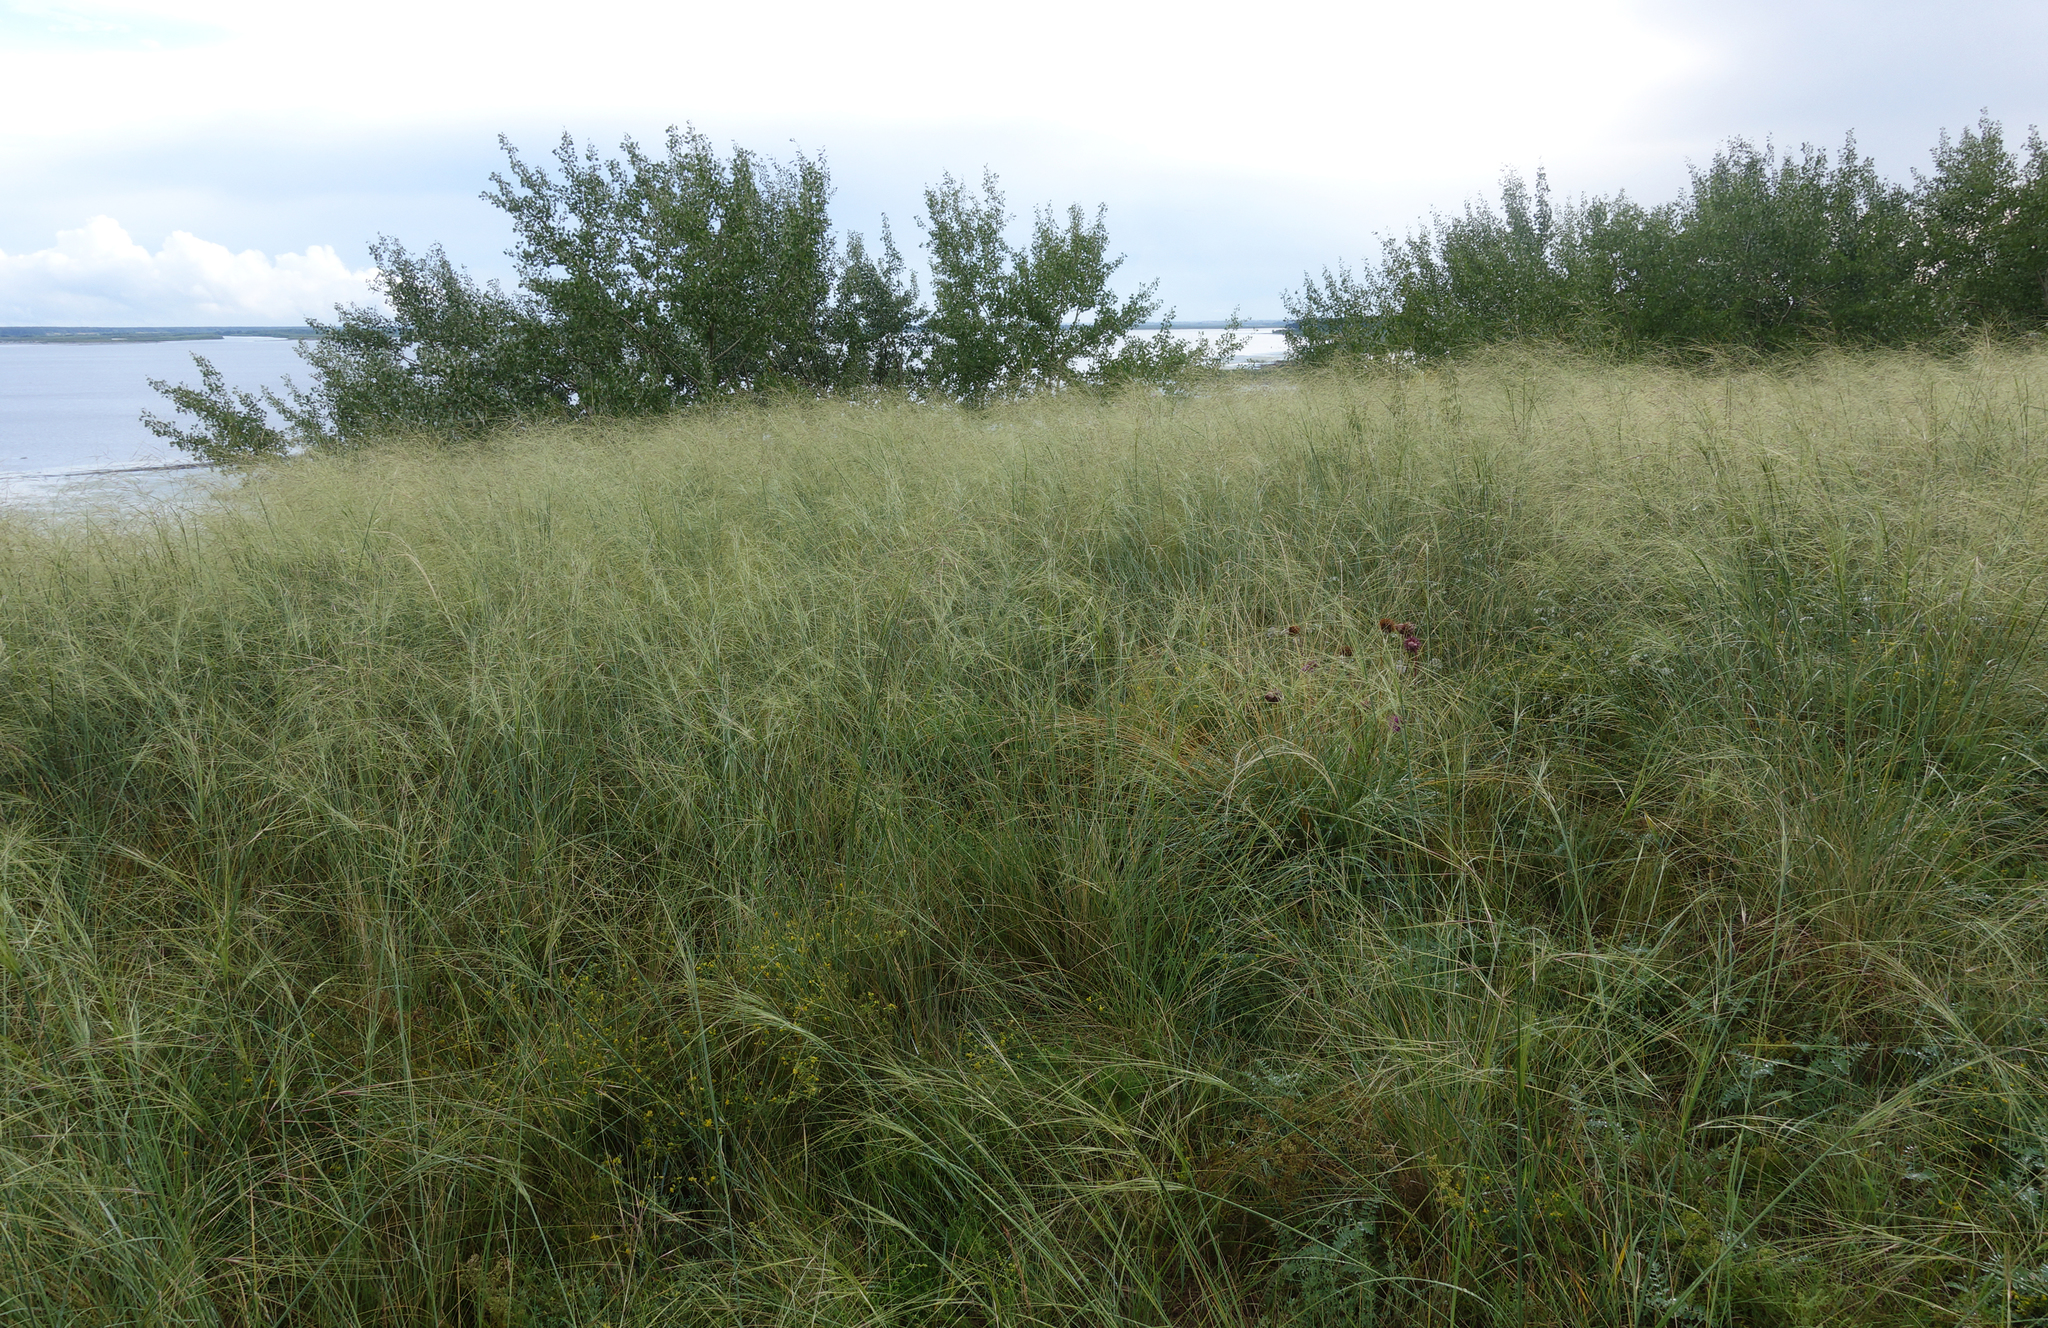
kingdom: Plantae
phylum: Tracheophyta
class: Liliopsida
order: Poales
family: Poaceae
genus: Stipa
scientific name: Stipa capillata
